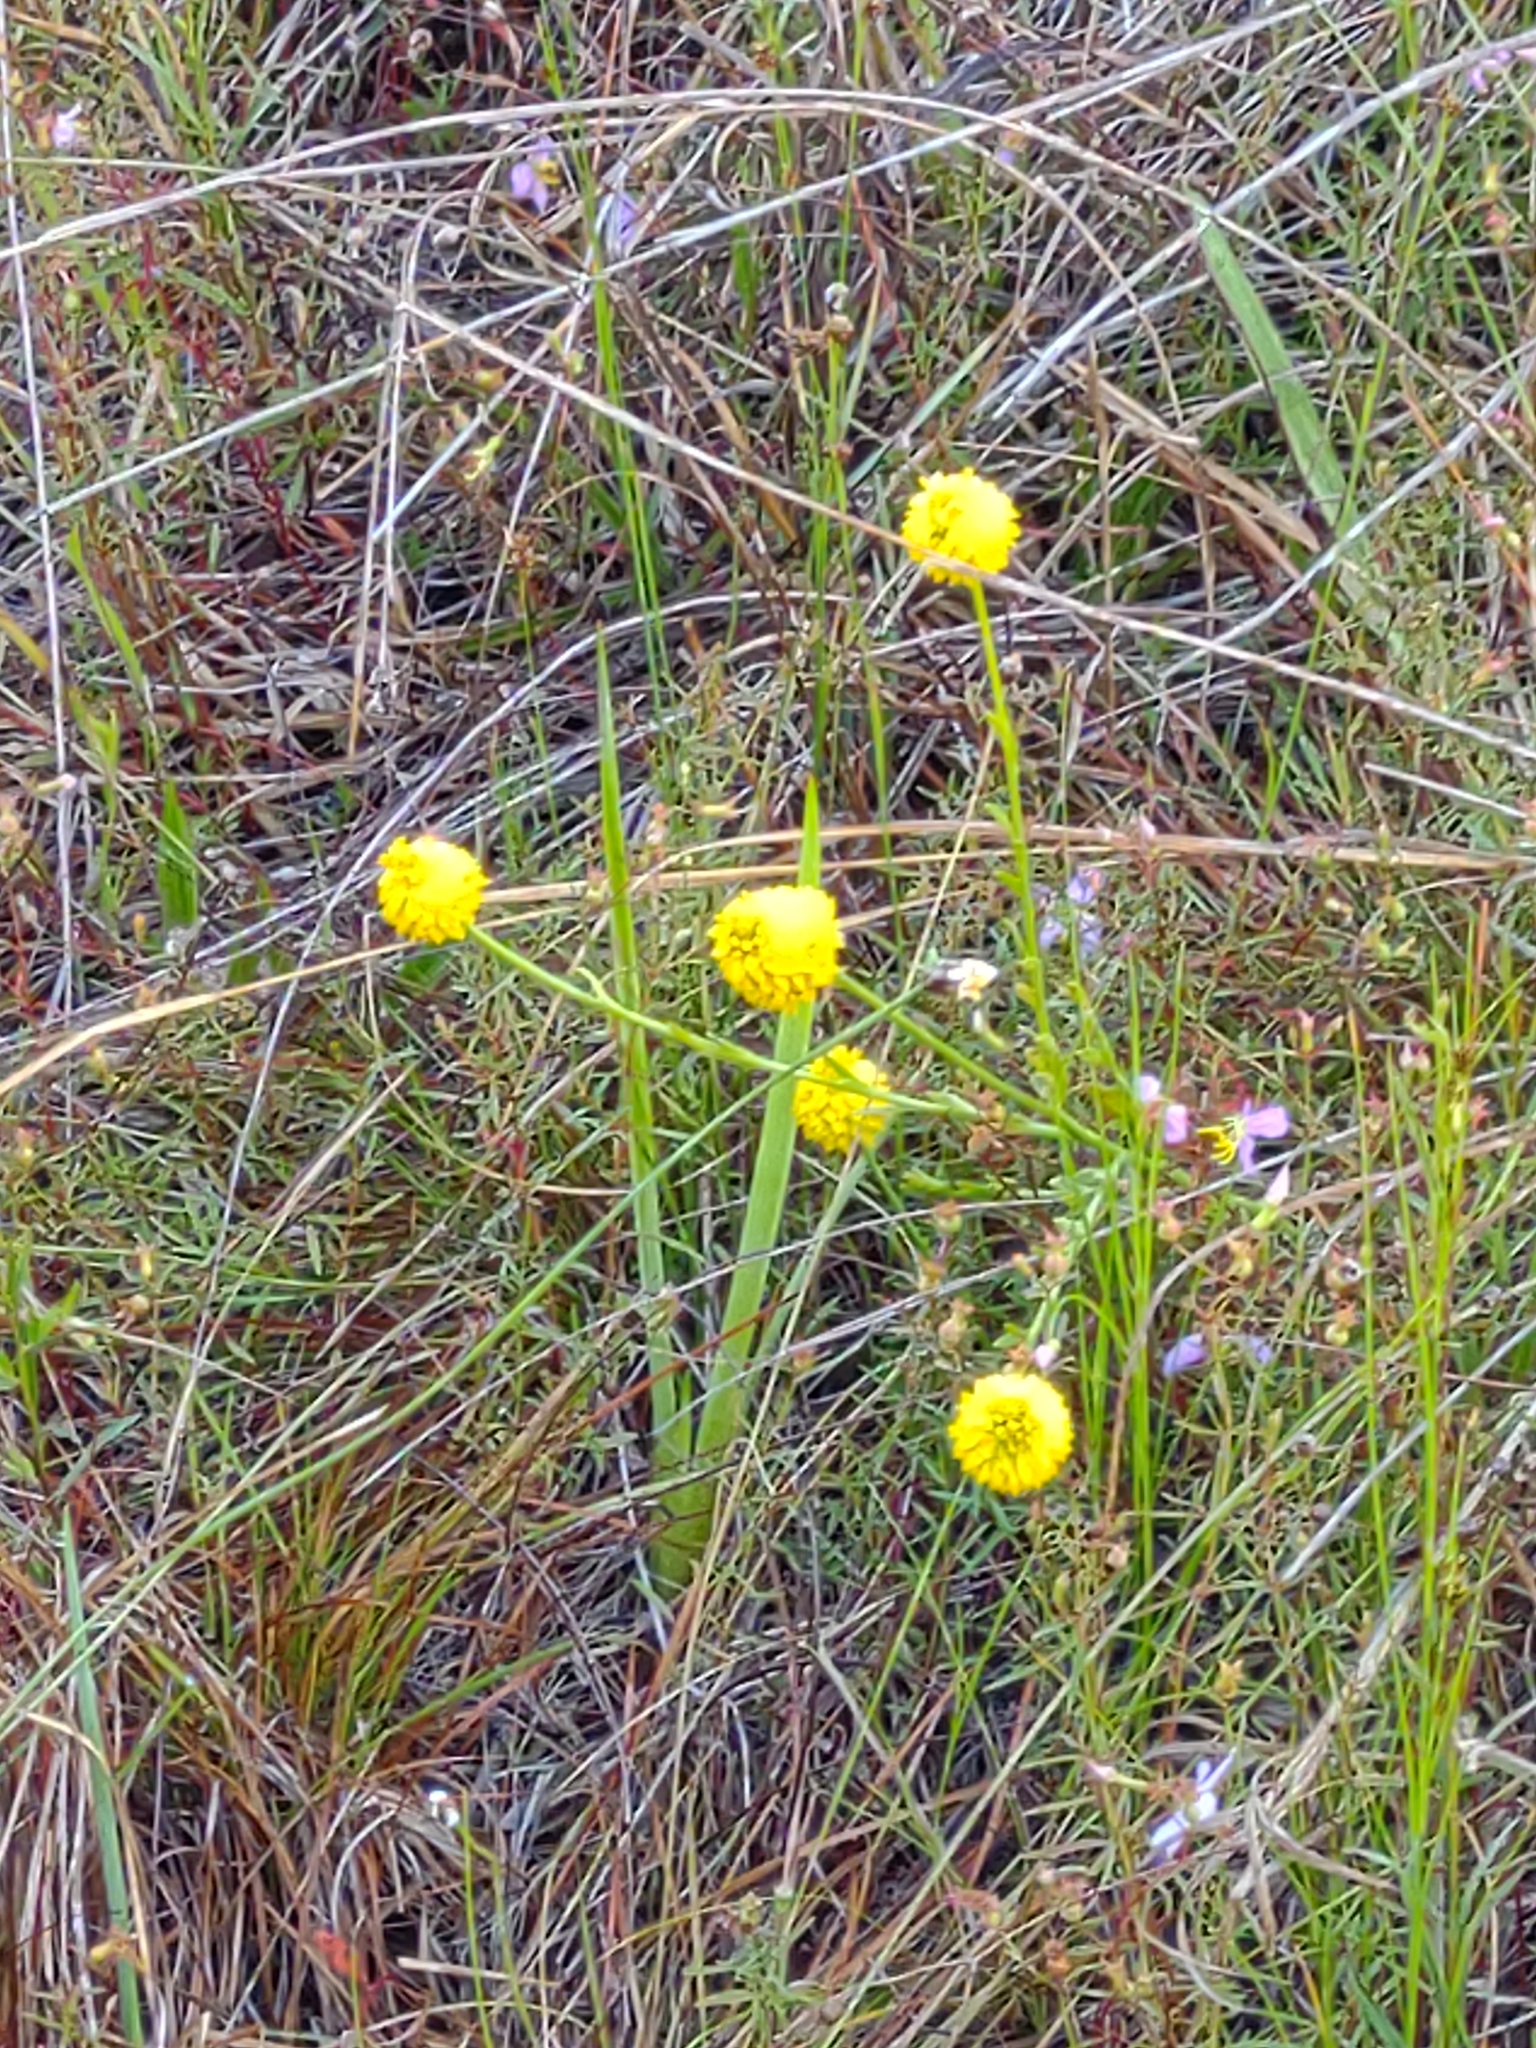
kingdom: Plantae
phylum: Tracheophyta
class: Magnoliopsida
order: Fabales
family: Polygalaceae
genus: Polygala
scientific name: Polygala rugelii
